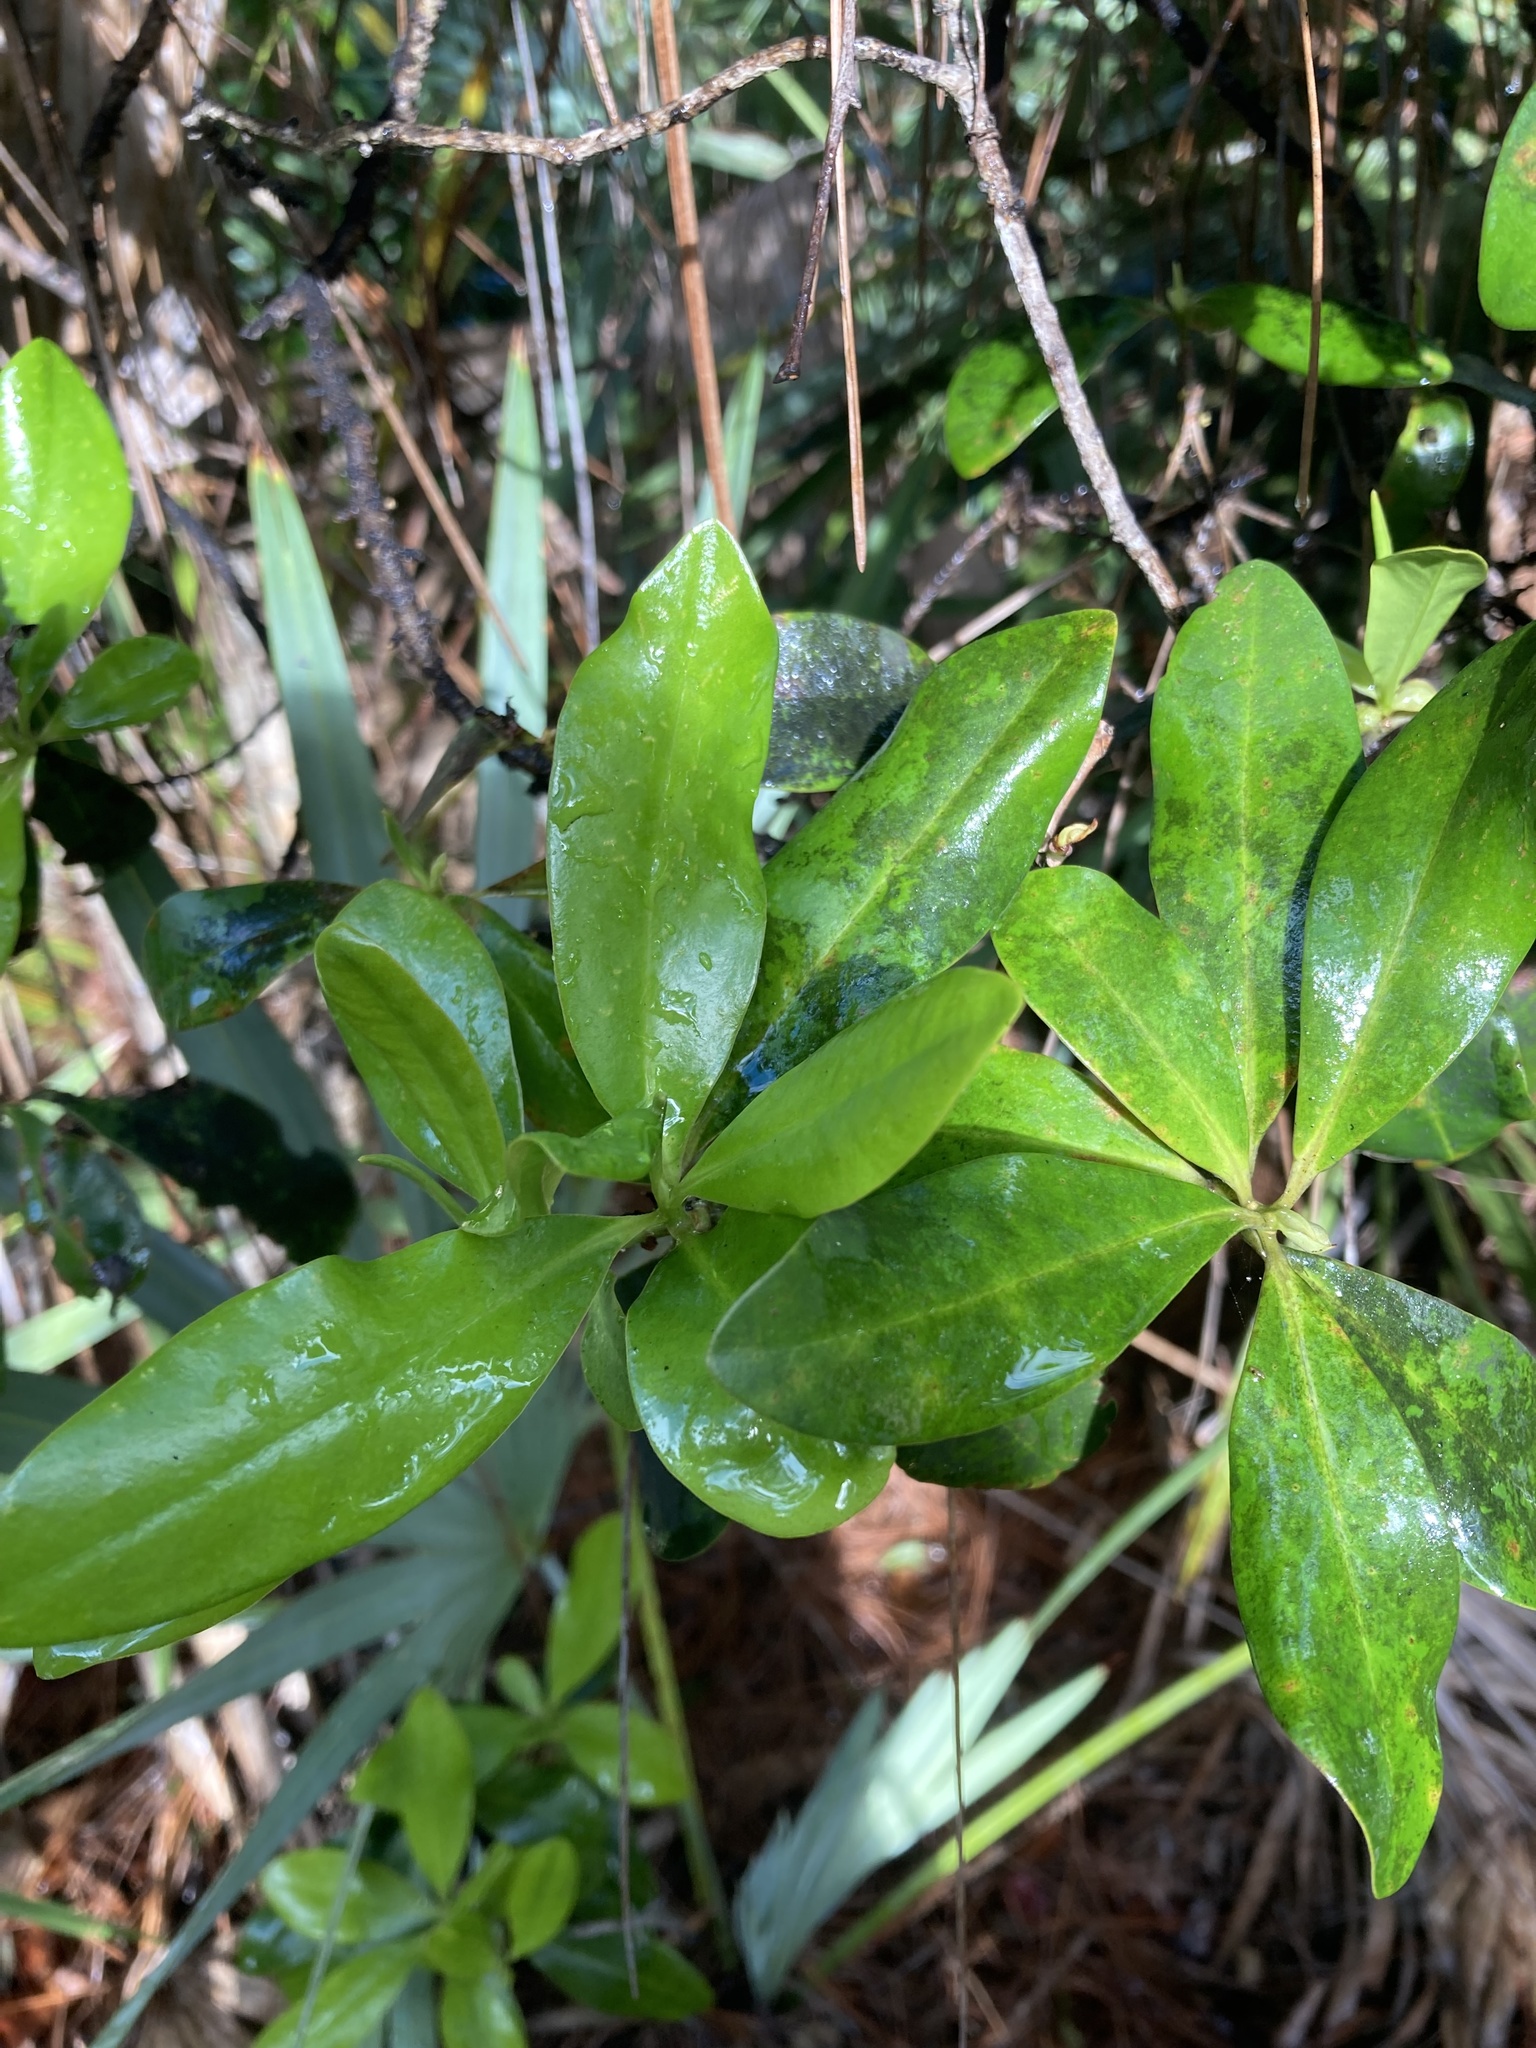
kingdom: Plantae
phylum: Tracheophyta
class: Magnoliopsida
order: Ericales
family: Primulaceae
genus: Myrsine
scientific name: Myrsine floridana
